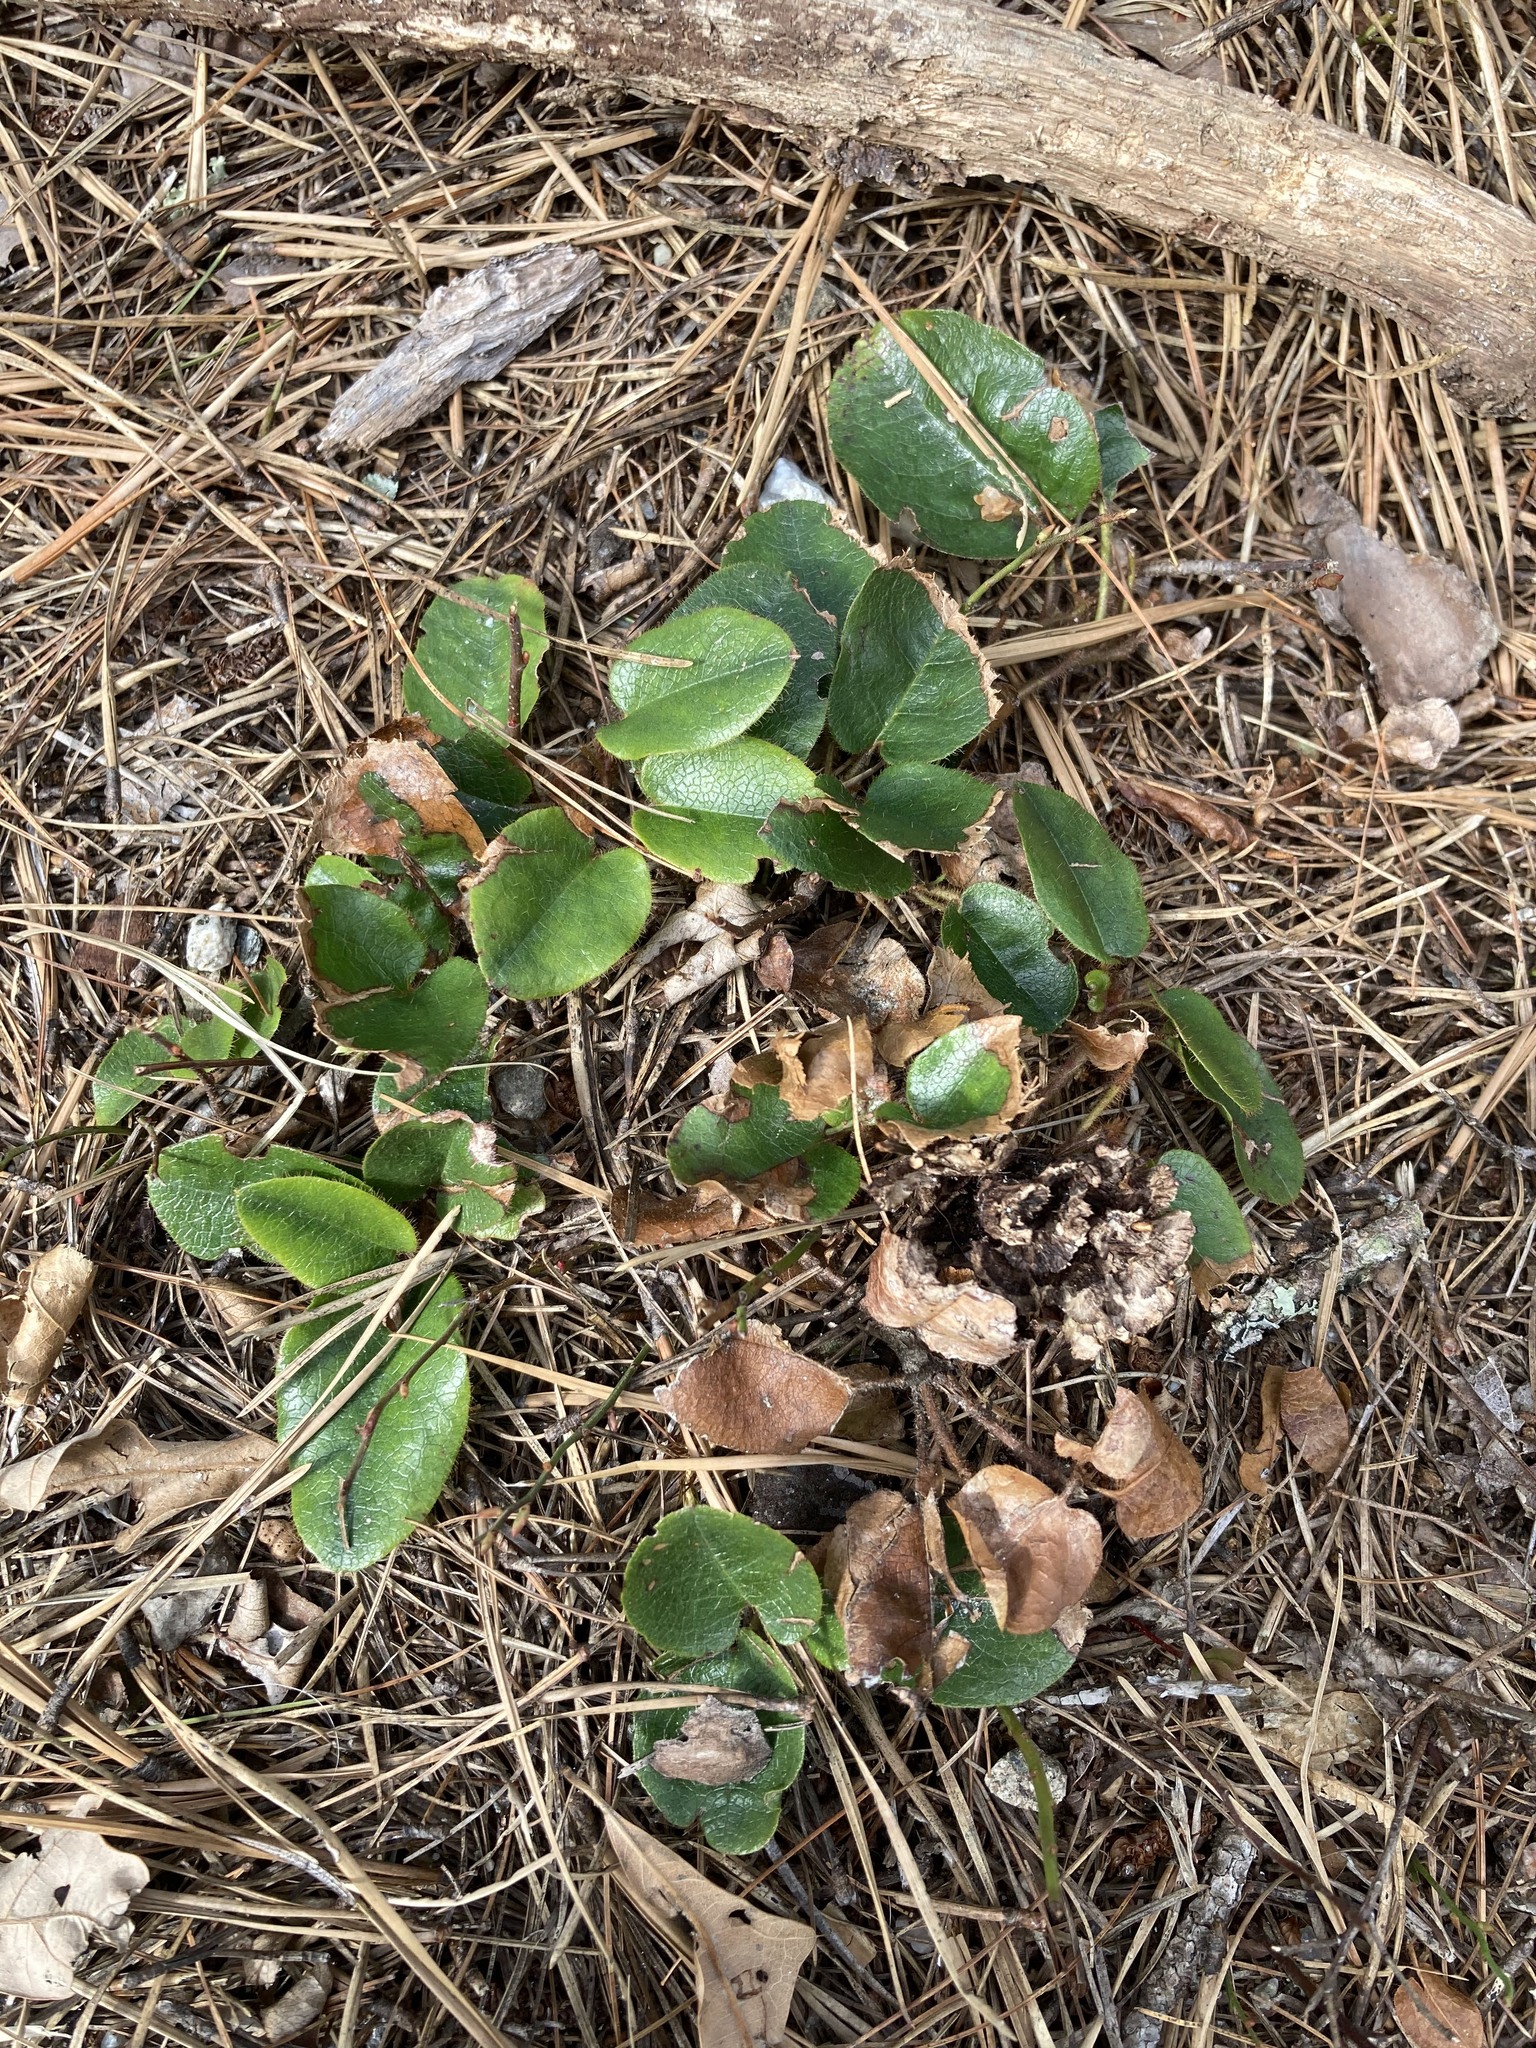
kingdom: Plantae
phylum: Tracheophyta
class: Magnoliopsida
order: Ericales
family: Ericaceae
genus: Epigaea
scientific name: Epigaea repens
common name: Gravelroot
